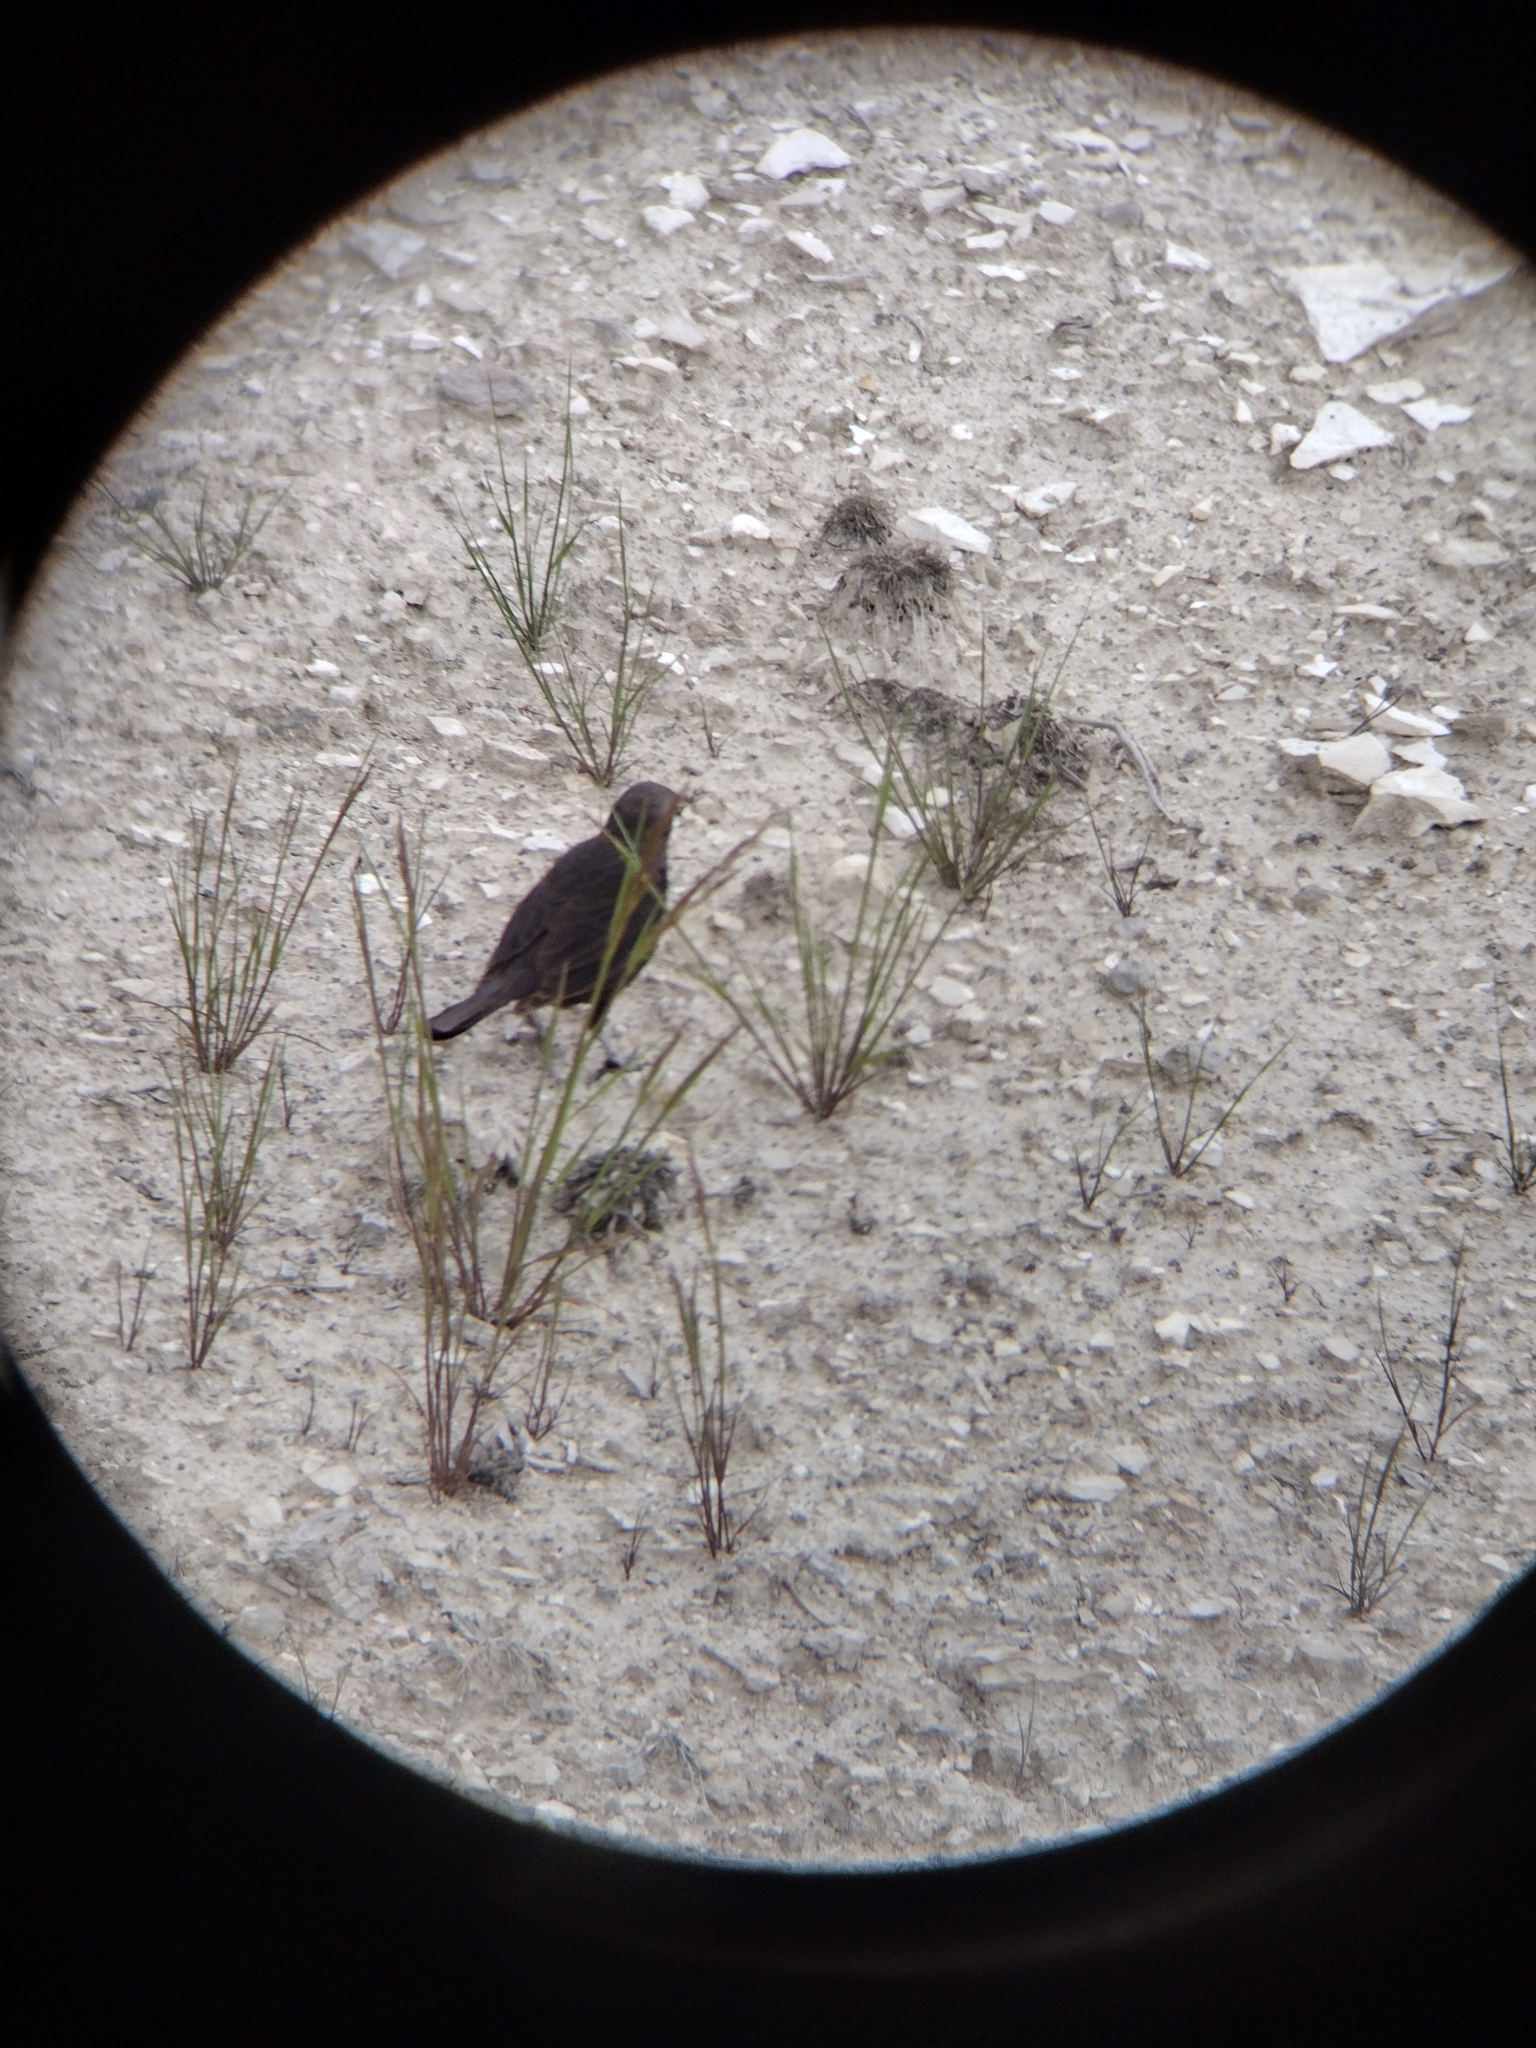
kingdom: Animalia
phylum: Chordata
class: Aves
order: Passeriformes
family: Icteridae
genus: Euphagus
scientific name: Euphagus cyanocephalus
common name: Brewer's blackbird
